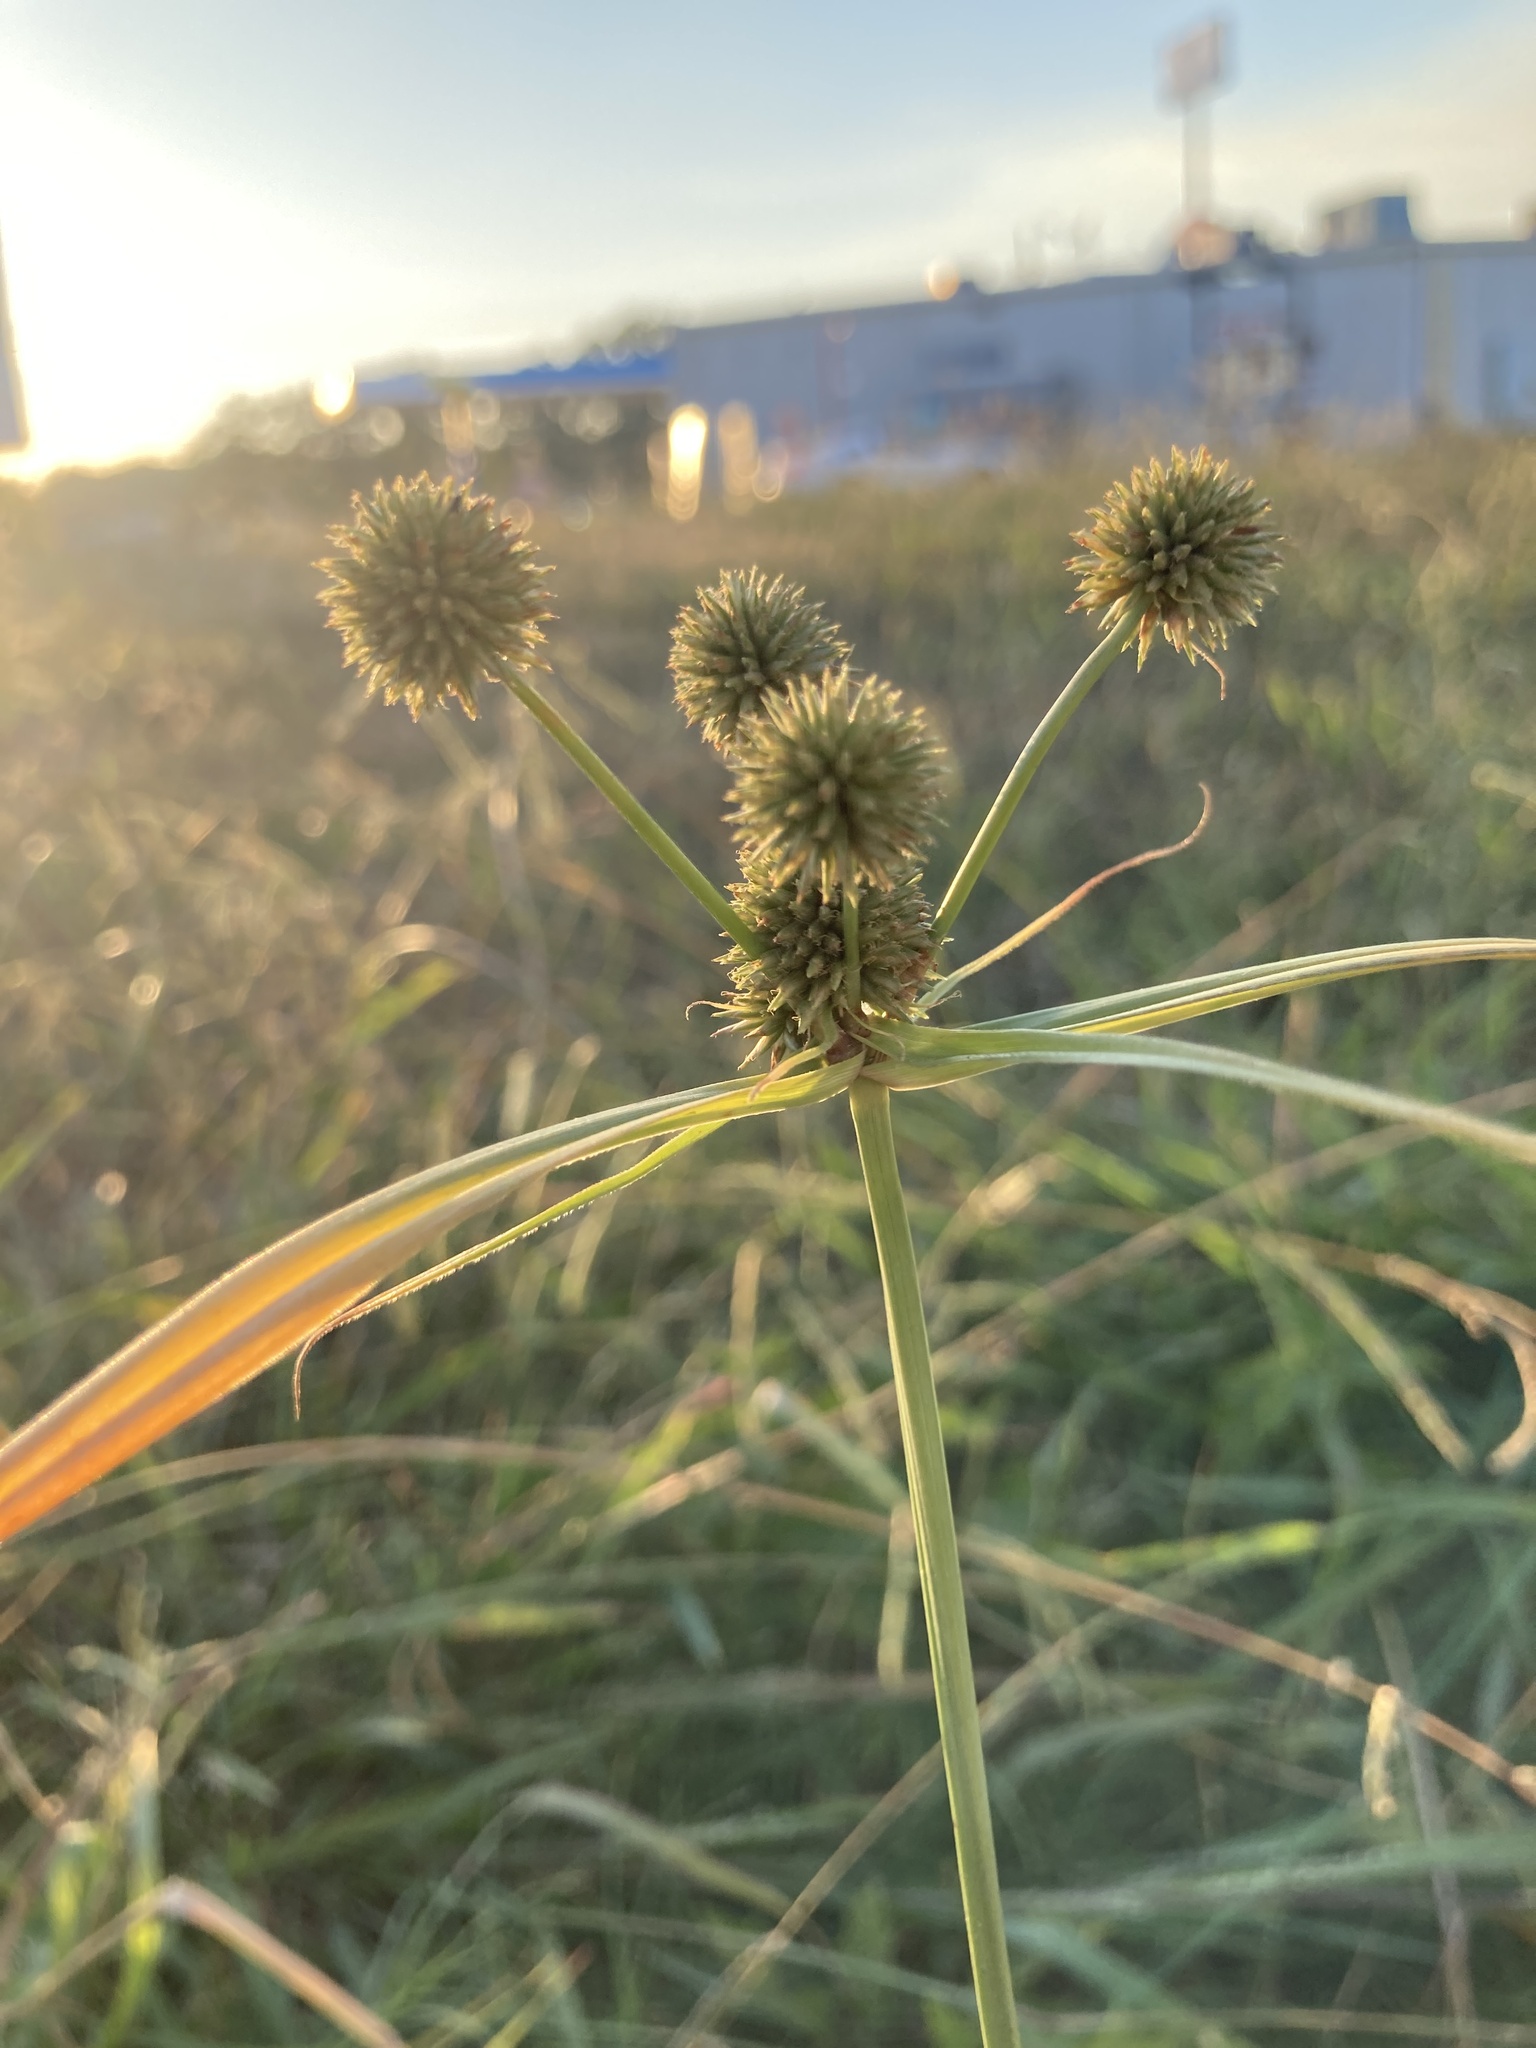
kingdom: Plantae
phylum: Tracheophyta
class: Liliopsida
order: Poales
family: Cyperaceae
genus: Cyperus
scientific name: Cyperus echinatus
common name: Teasel sedge
